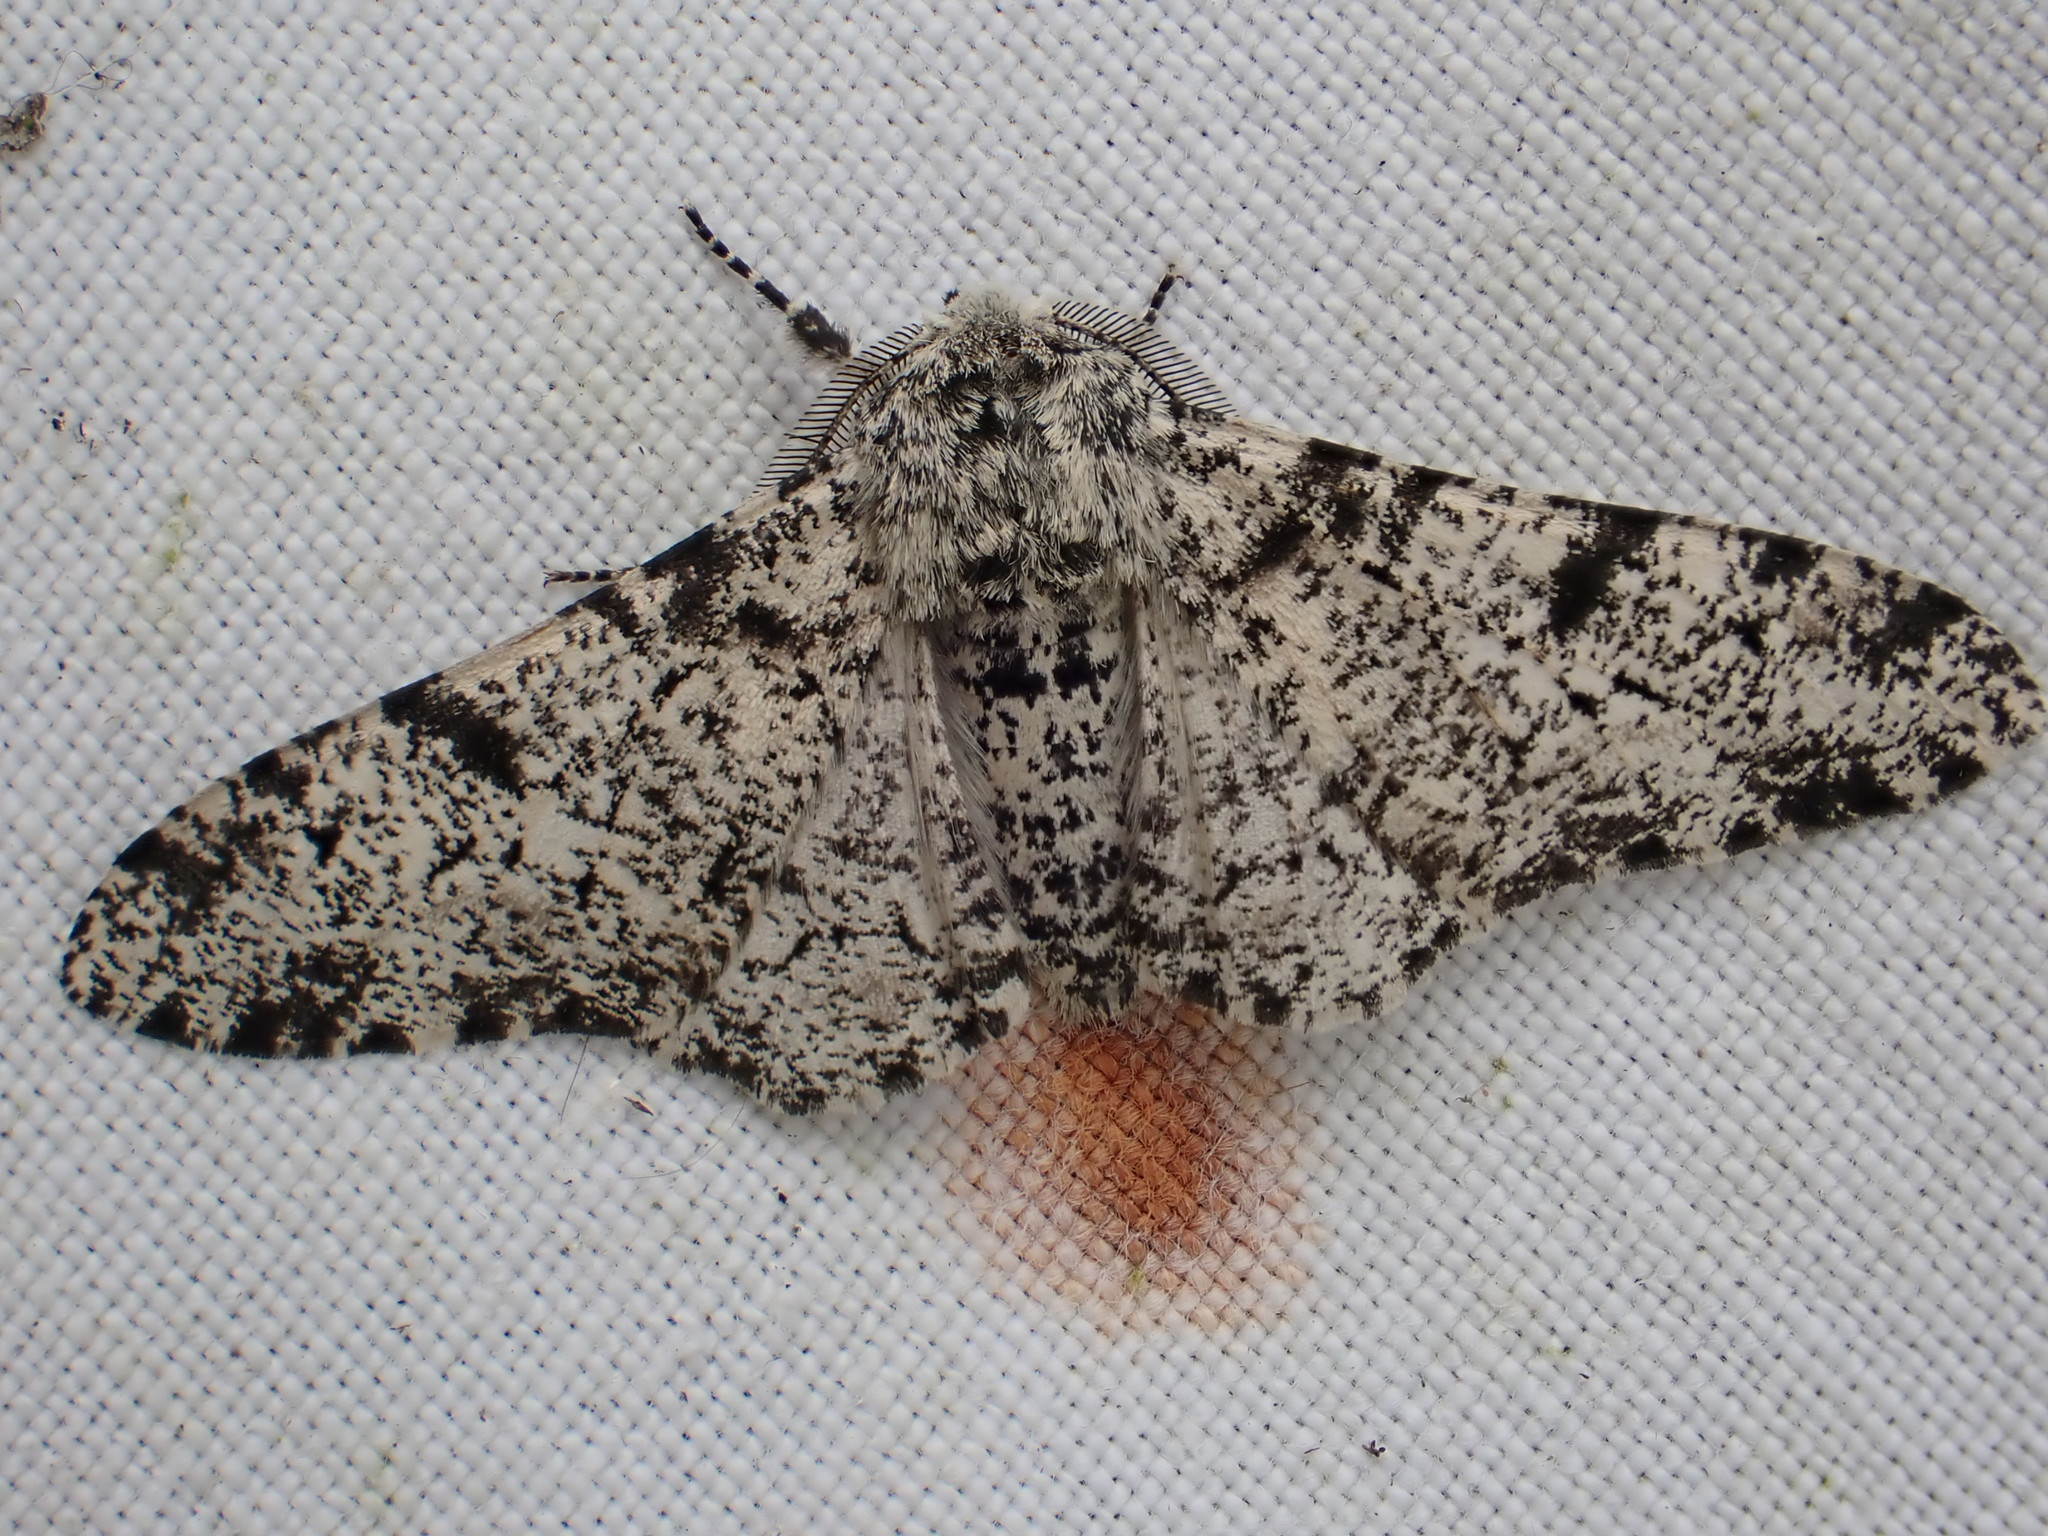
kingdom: Animalia
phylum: Arthropoda
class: Insecta
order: Lepidoptera
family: Geometridae
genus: Biston
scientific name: Biston betularia
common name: Peppered moth
